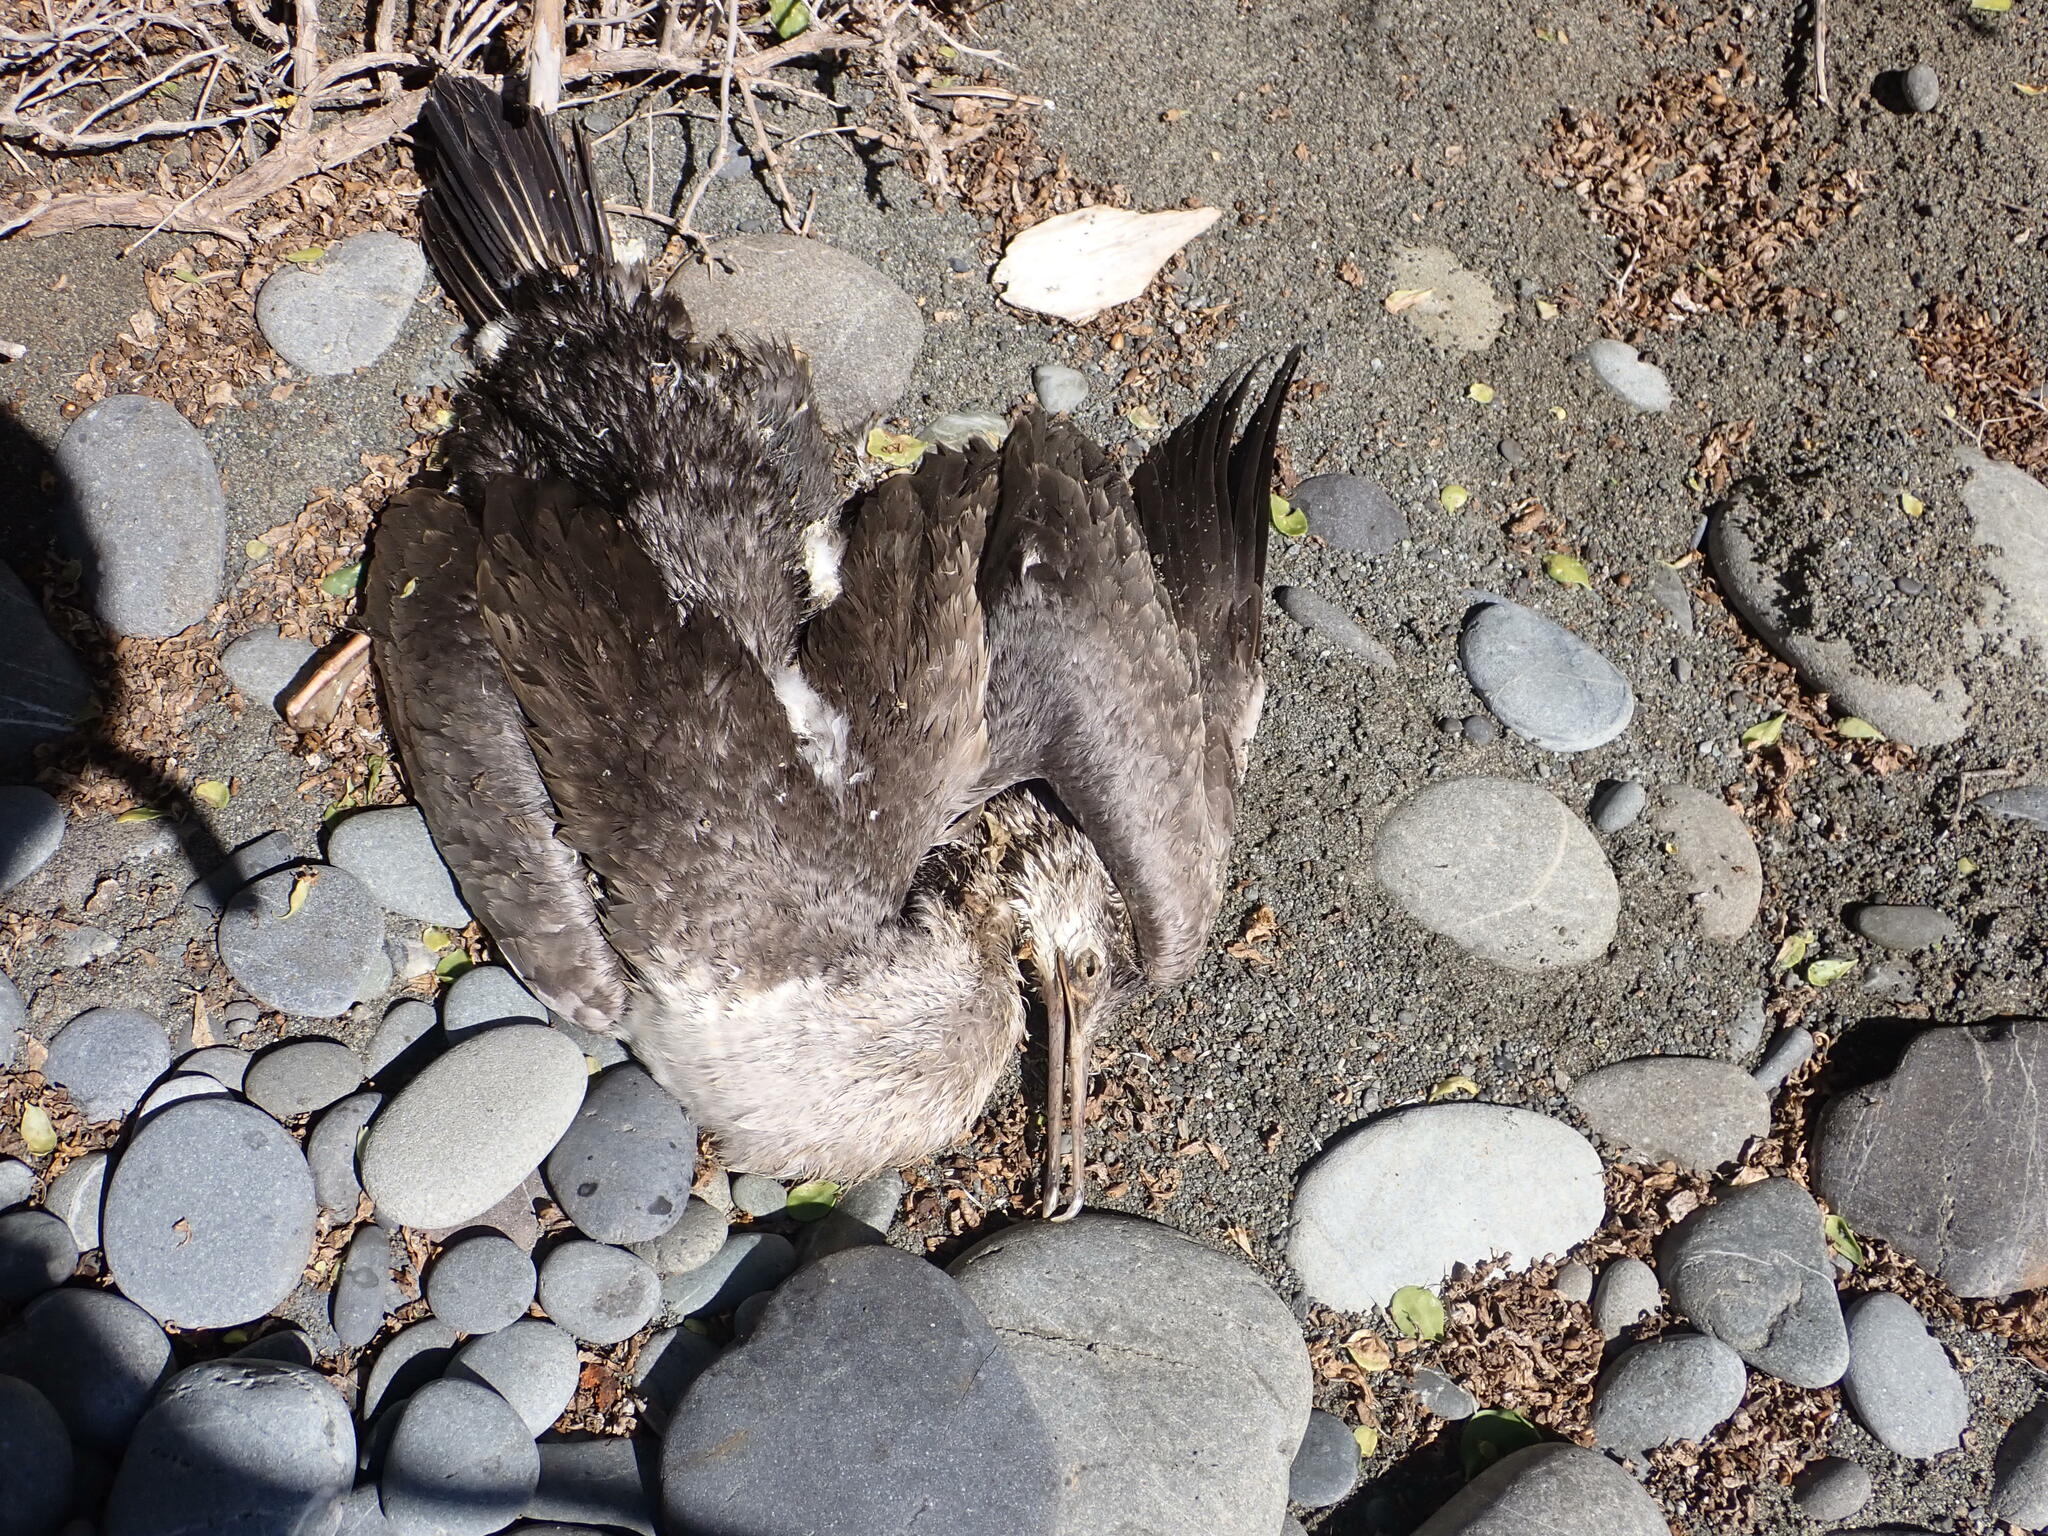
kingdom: Animalia
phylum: Chordata
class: Aves
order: Suliformes
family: Phalacrocoracidae
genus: Phalacrocorax
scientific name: Phalacrocorax punctatus
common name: Spotted shag
